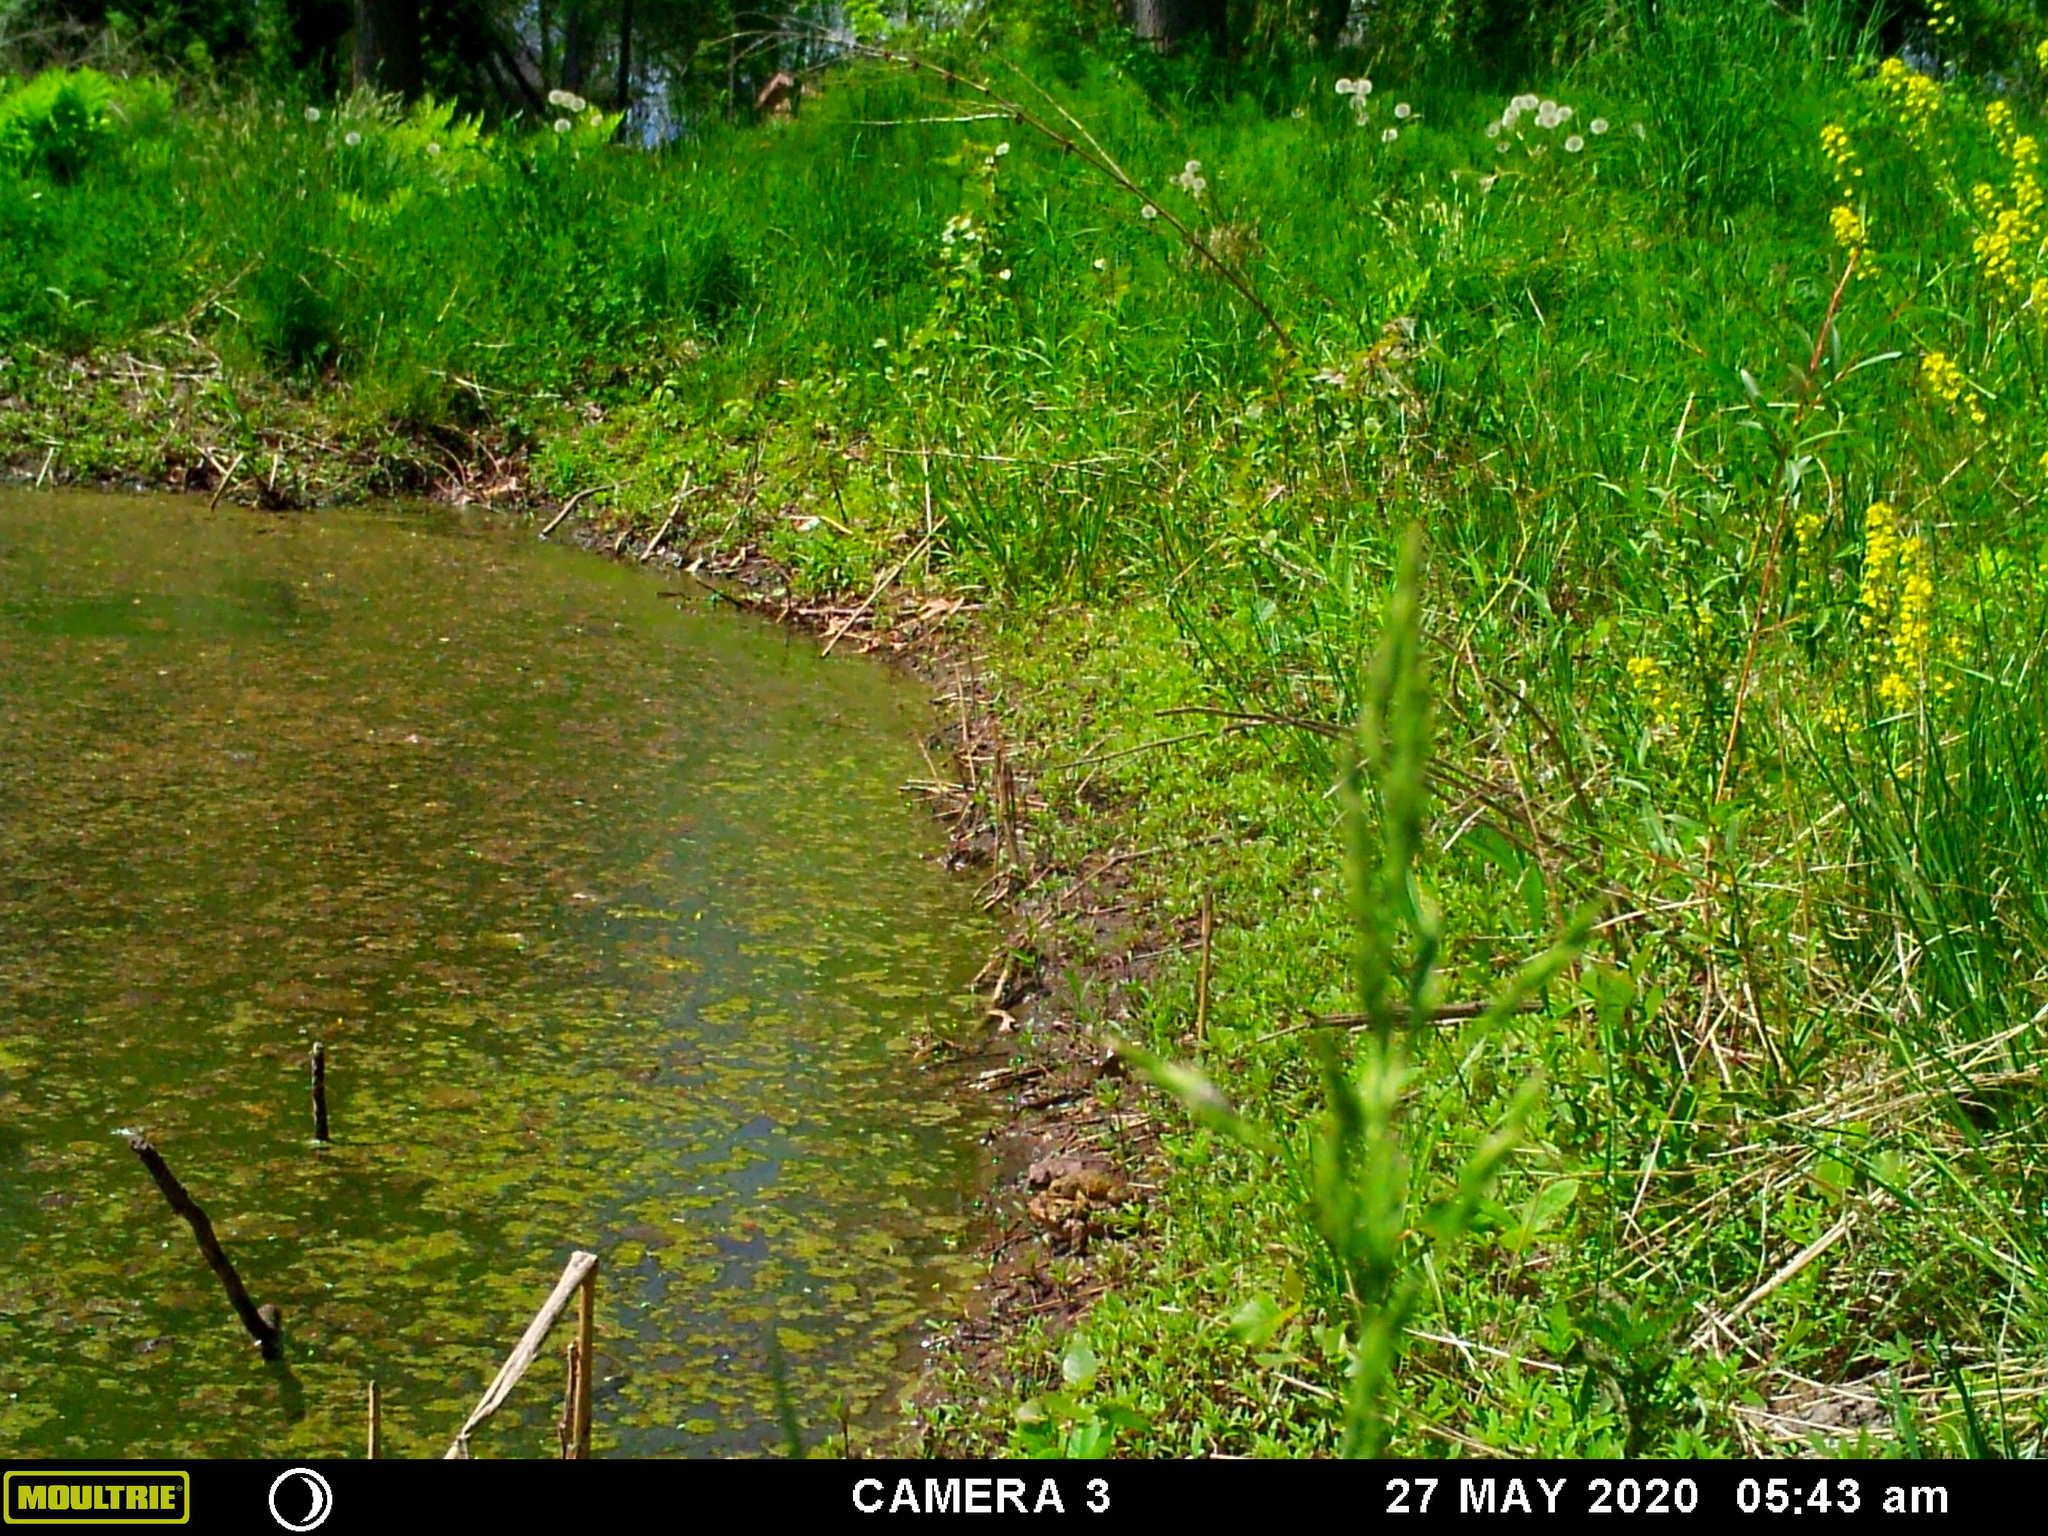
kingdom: Animalia
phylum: Chordata
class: Amphibia
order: Anura
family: Bufonidae
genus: Anaxyrus
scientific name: Anaxyrus americanus
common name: American toad
